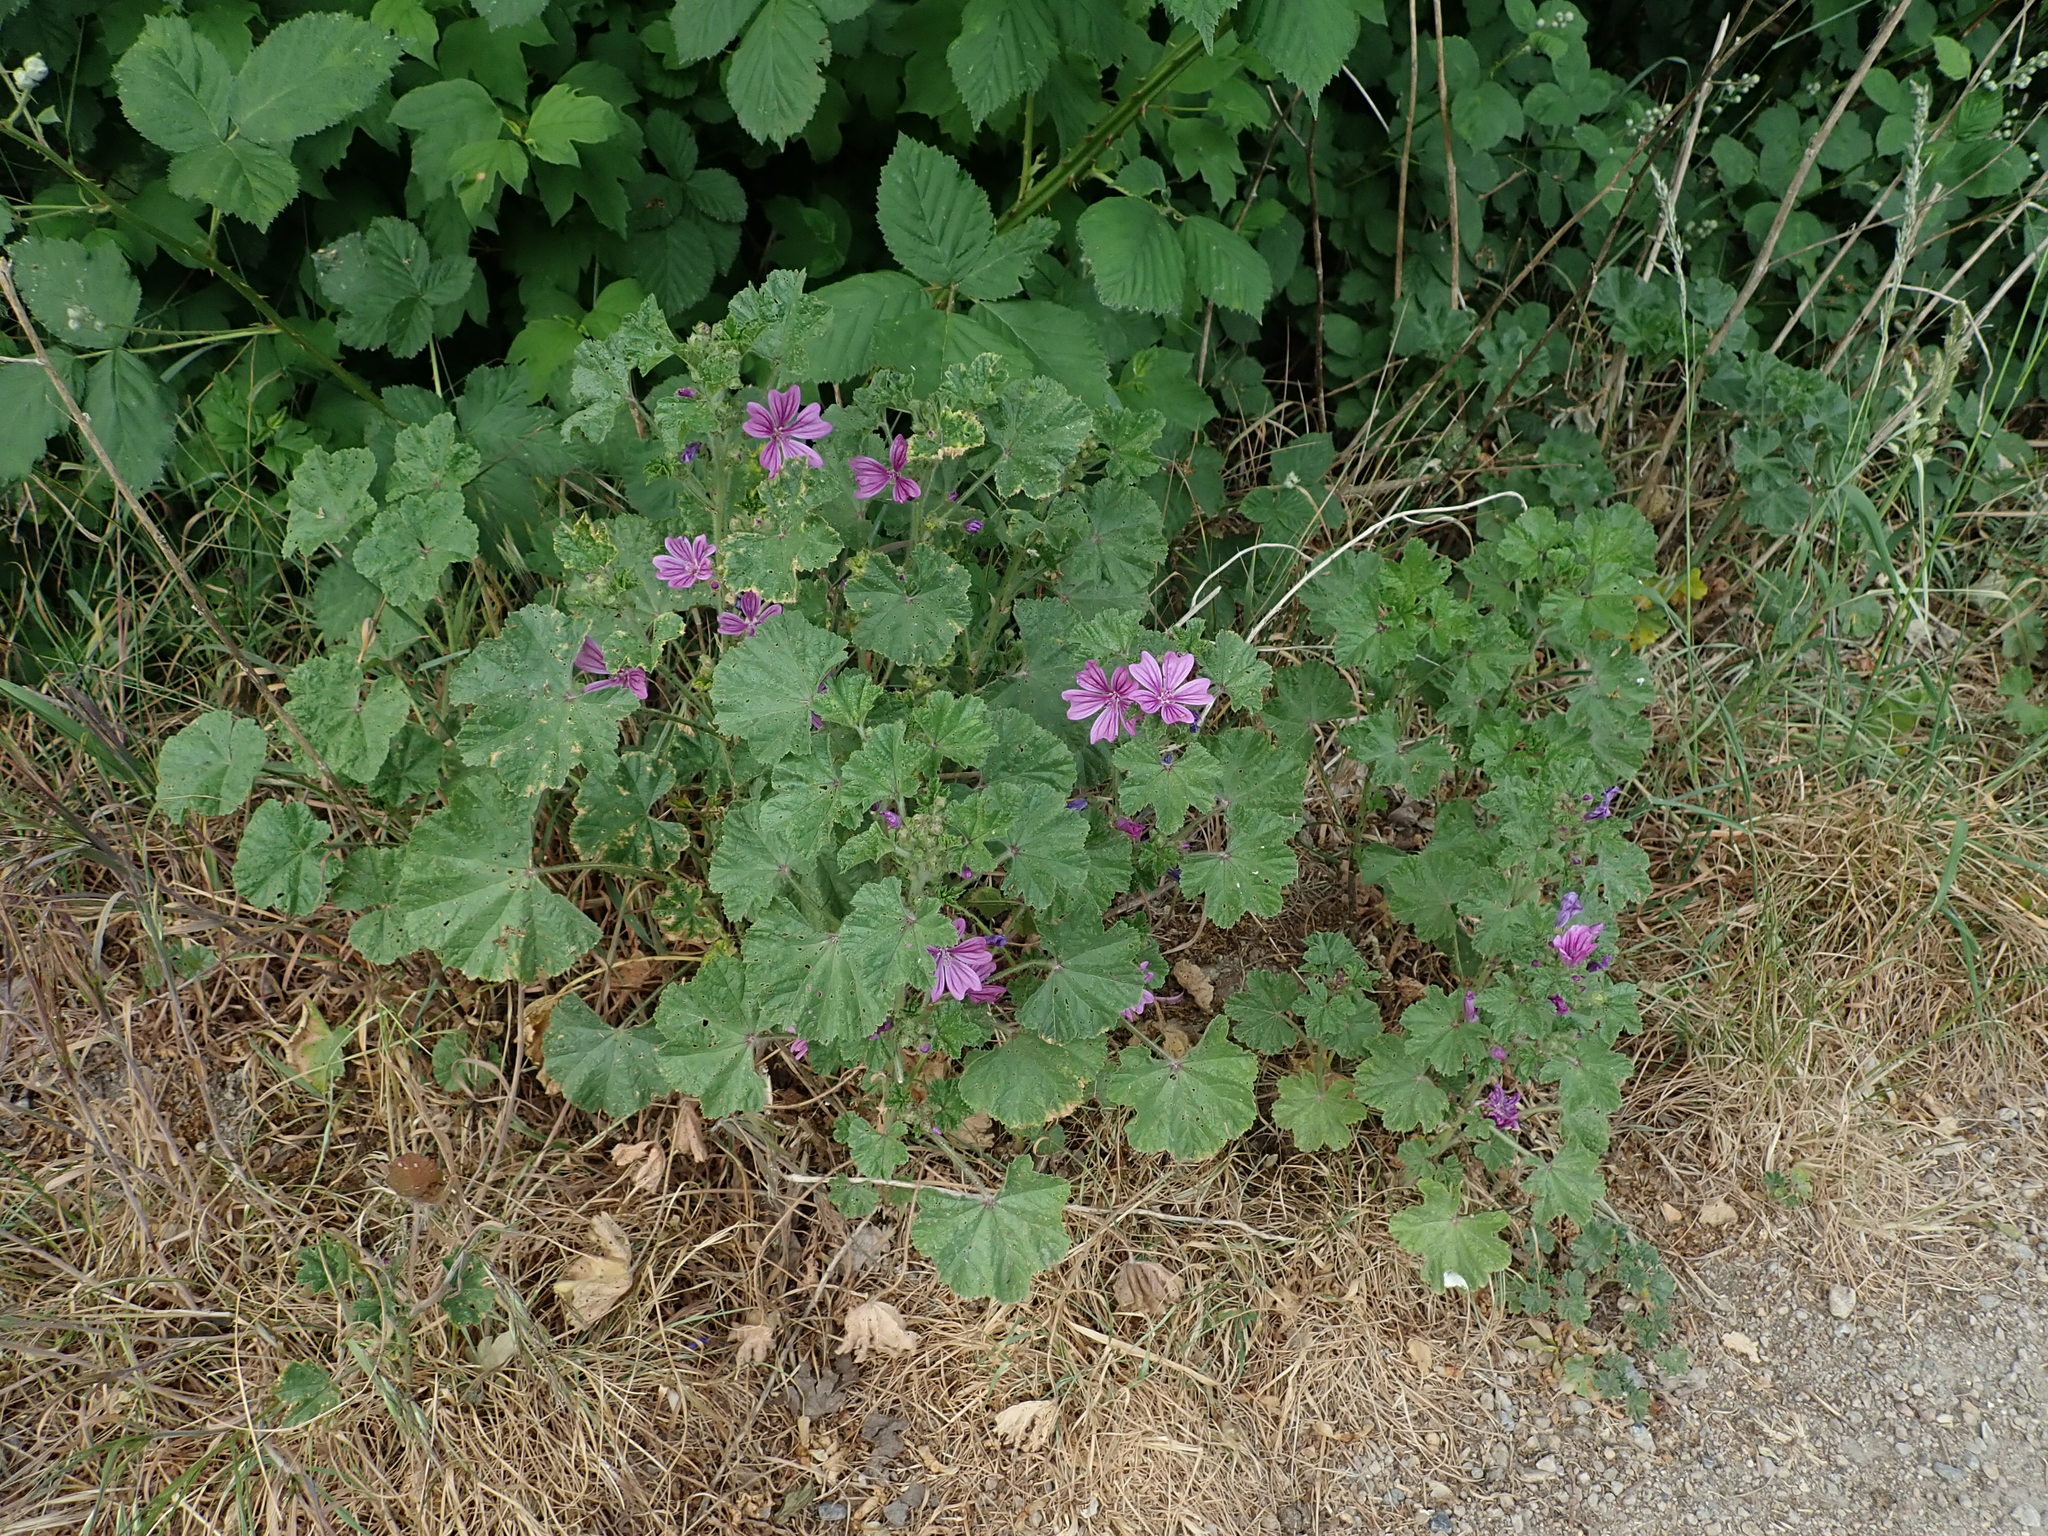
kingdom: Plantae
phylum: Tracheophyta
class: Magnoliopsida
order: Malvales
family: Malvaceae
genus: Malva
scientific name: Malva sylvestris
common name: Common mallow
